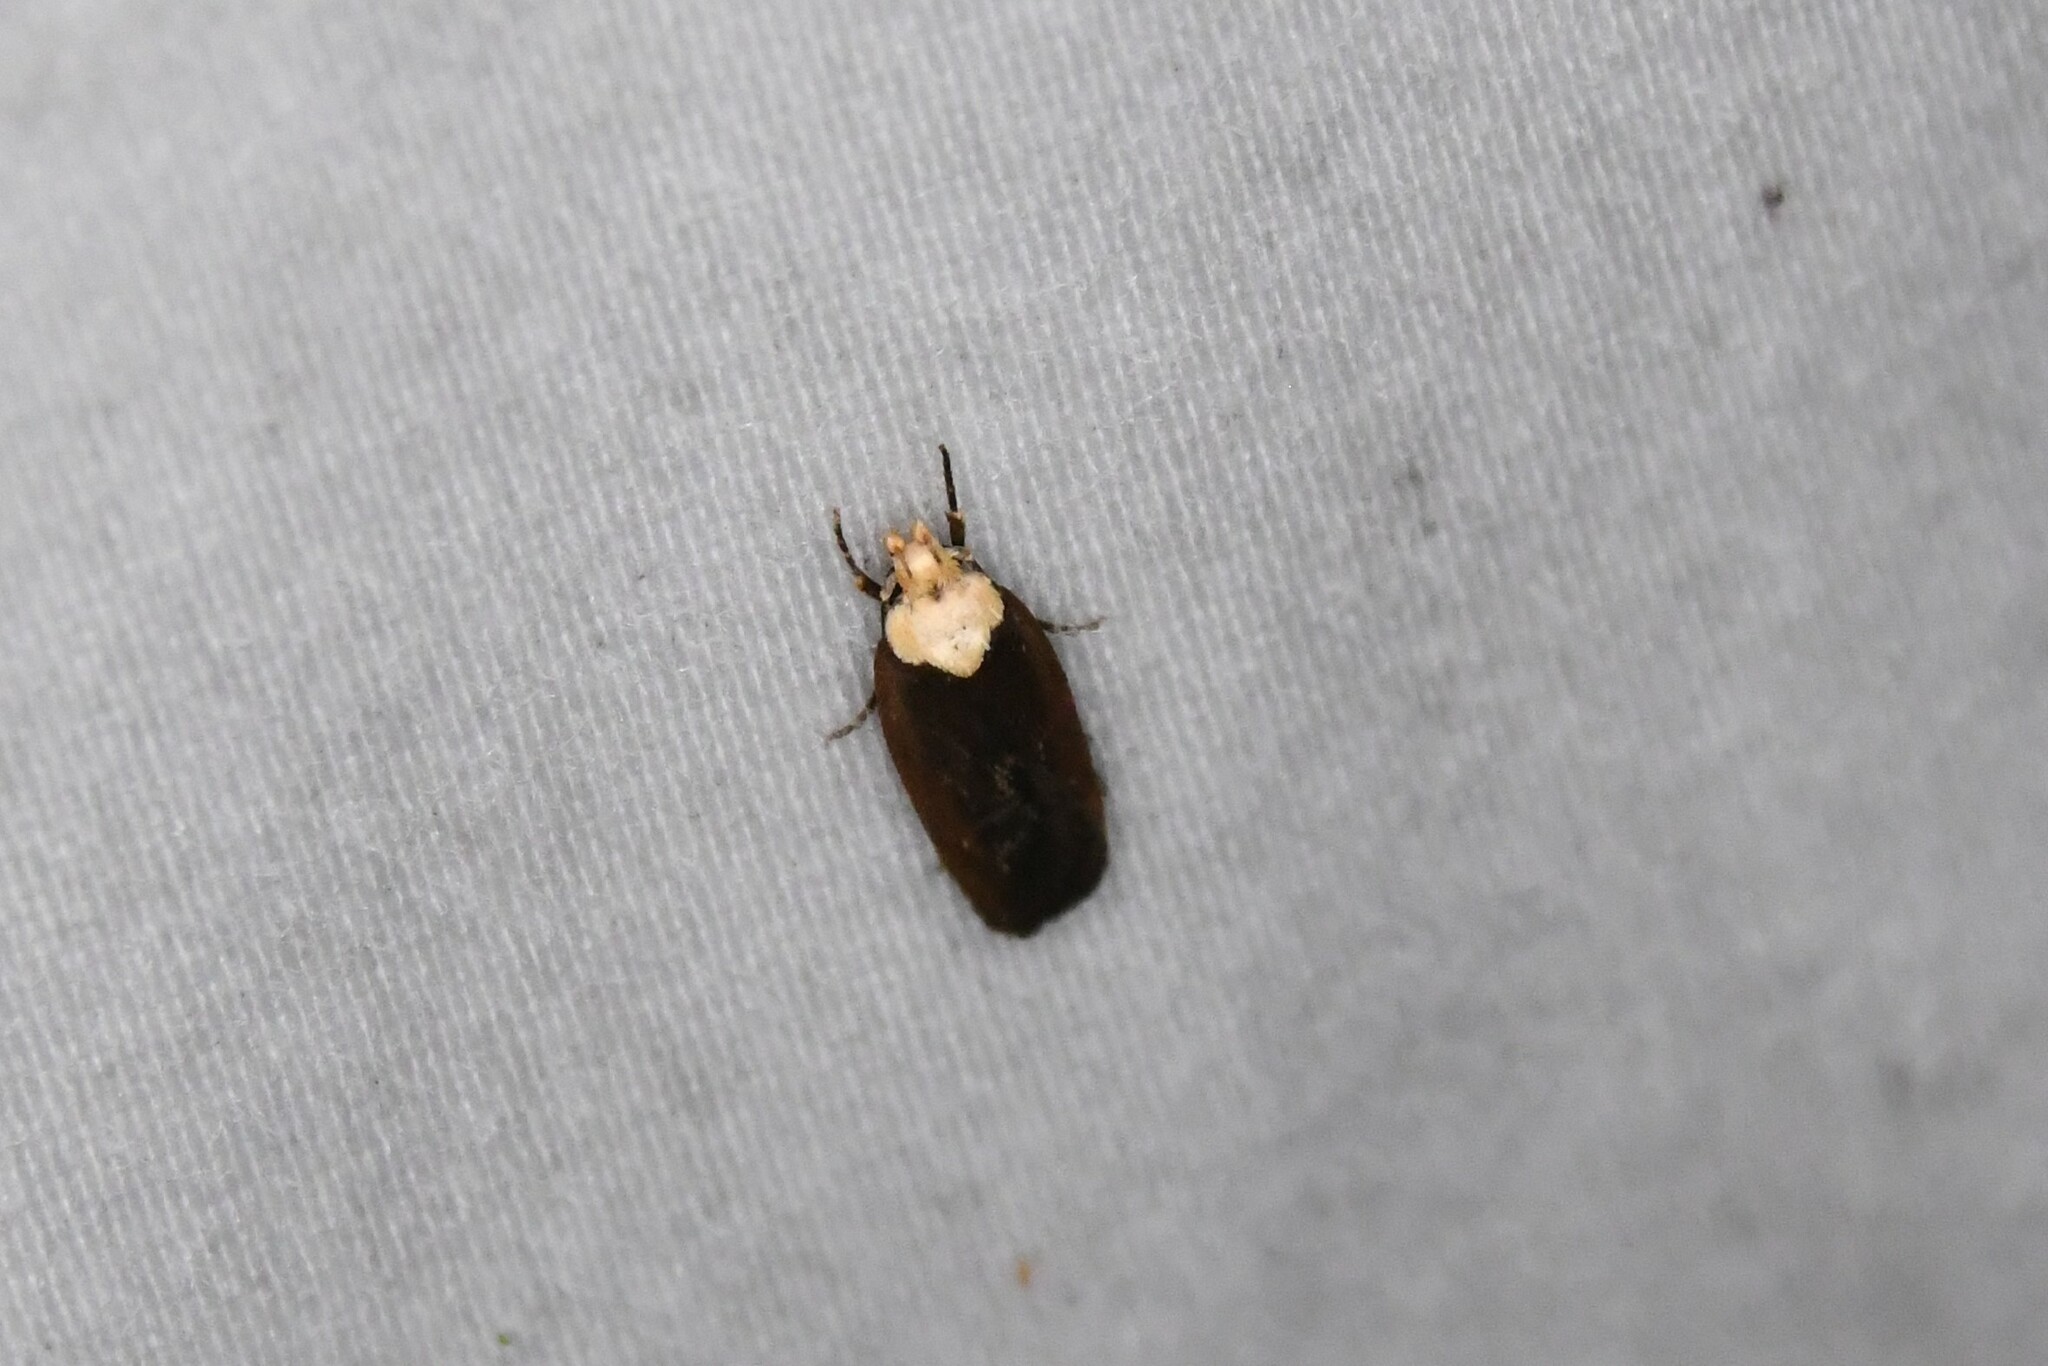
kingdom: Animalia
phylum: Arthropoda
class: Insecta
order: Lepidoptera
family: Depressariidae
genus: Depressaria
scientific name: Depressaria depressana
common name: Lost flat-body
